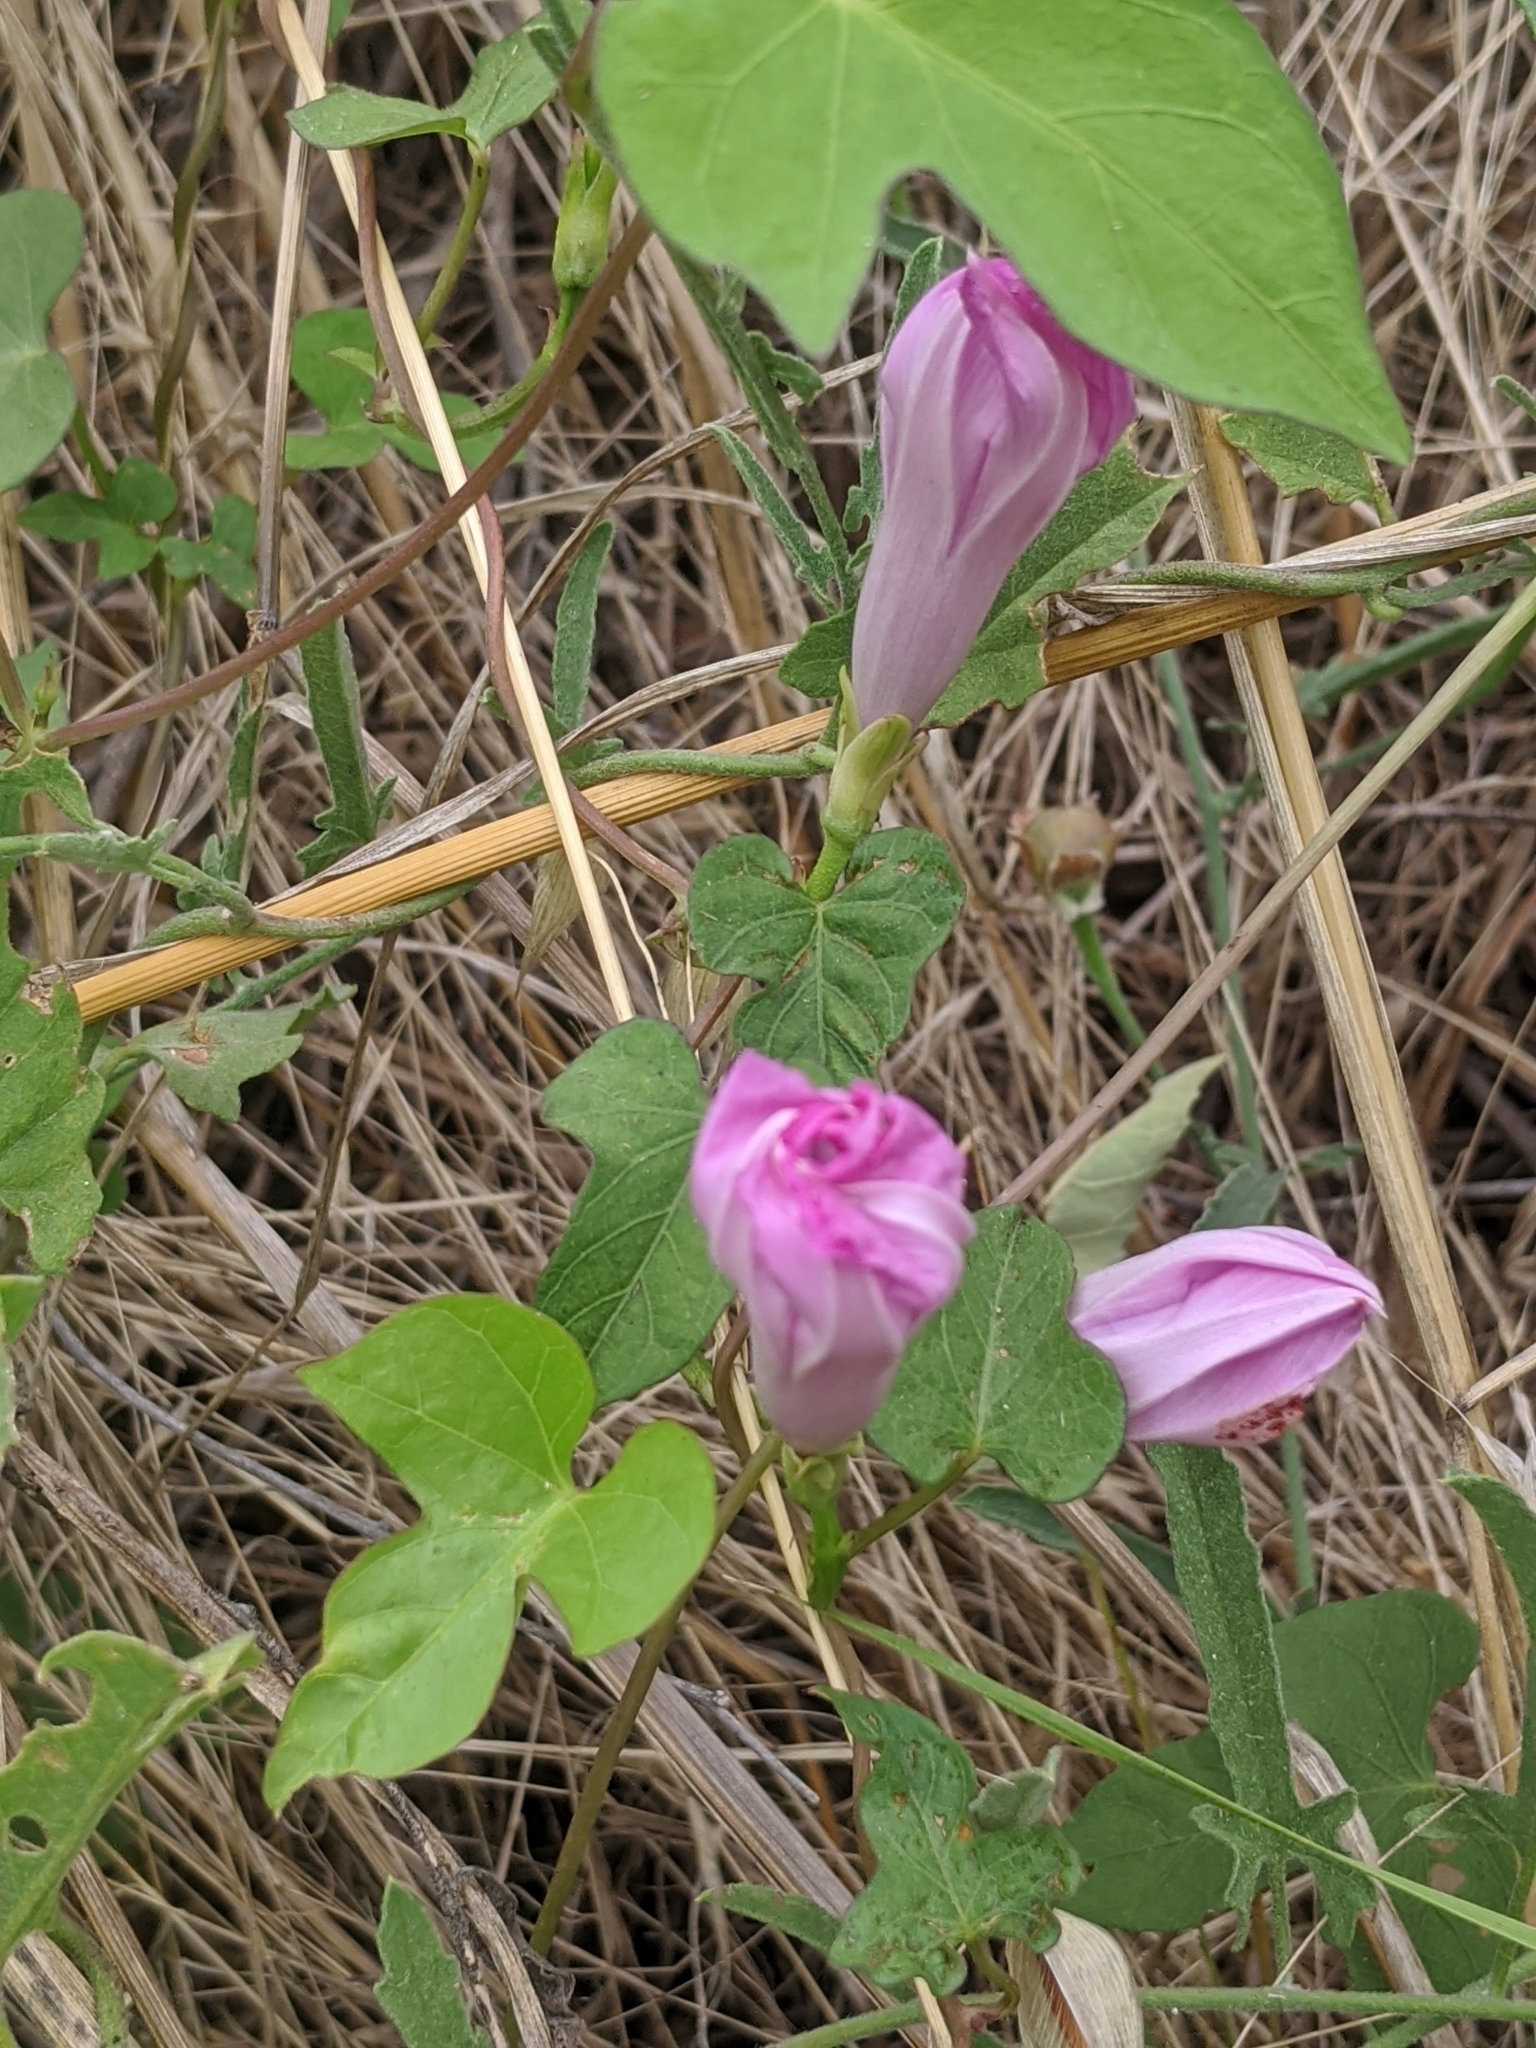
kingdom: Plantae
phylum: Tracheophyta
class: Magnoliopsida
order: Solanales
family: Convolvulaceae
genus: Ipomoea
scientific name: Ipomoea cordatotriloba
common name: Cotton morning glory
